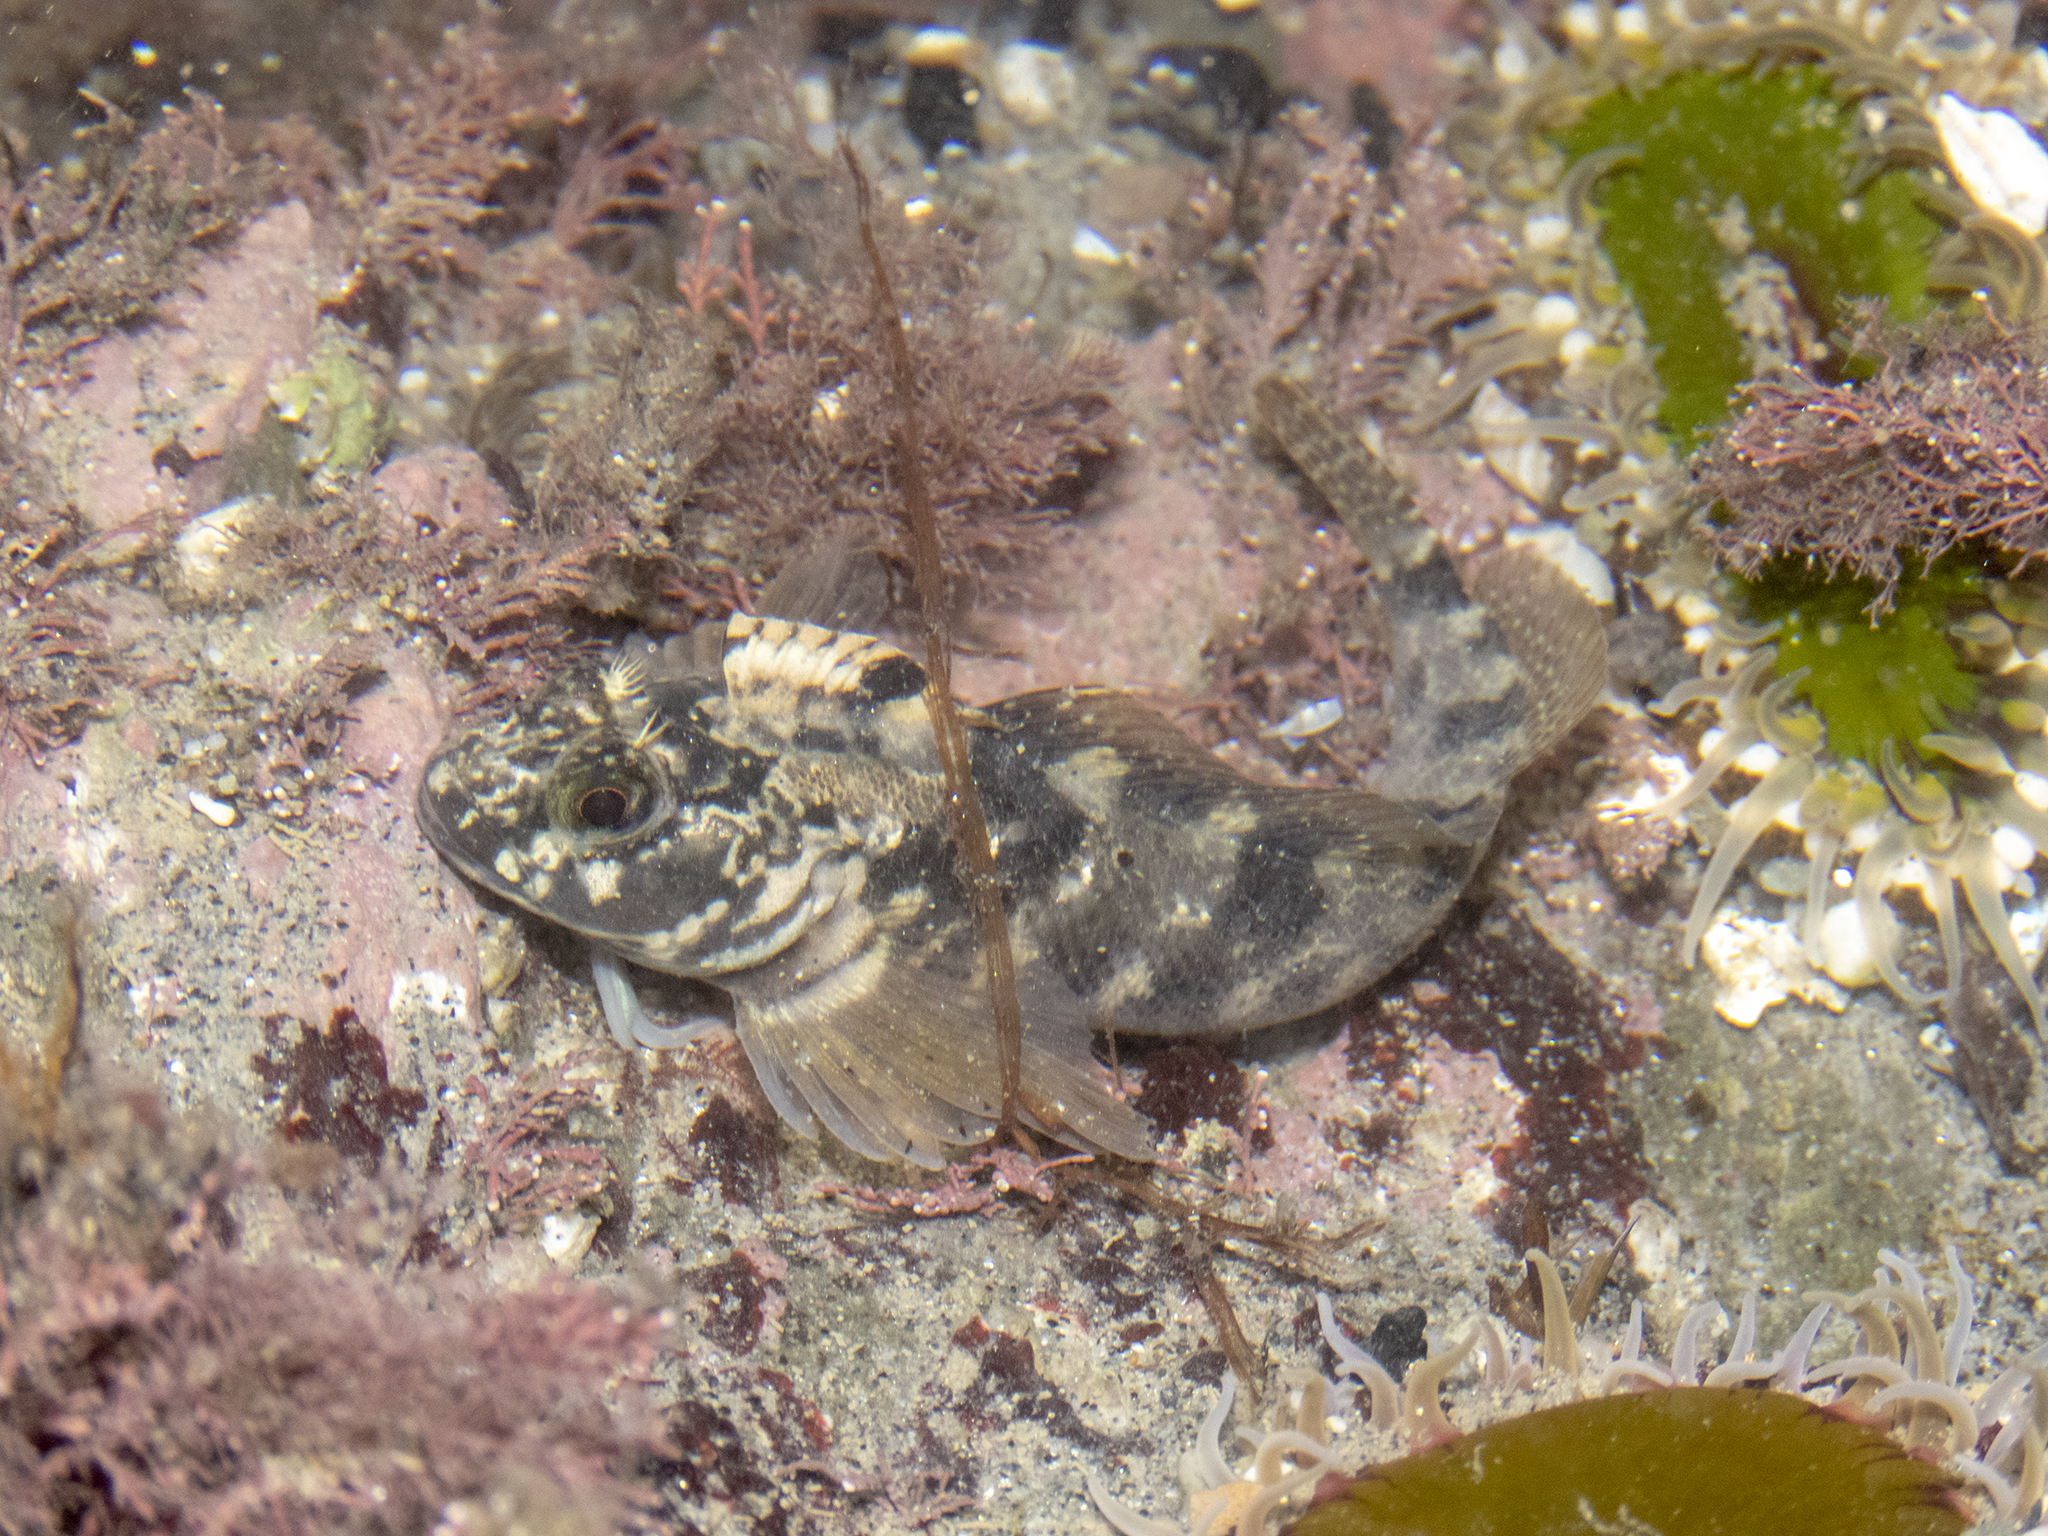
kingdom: Animalia
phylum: Chordata
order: Perciformes
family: Tripterygiidae
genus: Forsterygion
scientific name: Forsterygion gymnotum
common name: Multifid-tentacled robust triplefin
